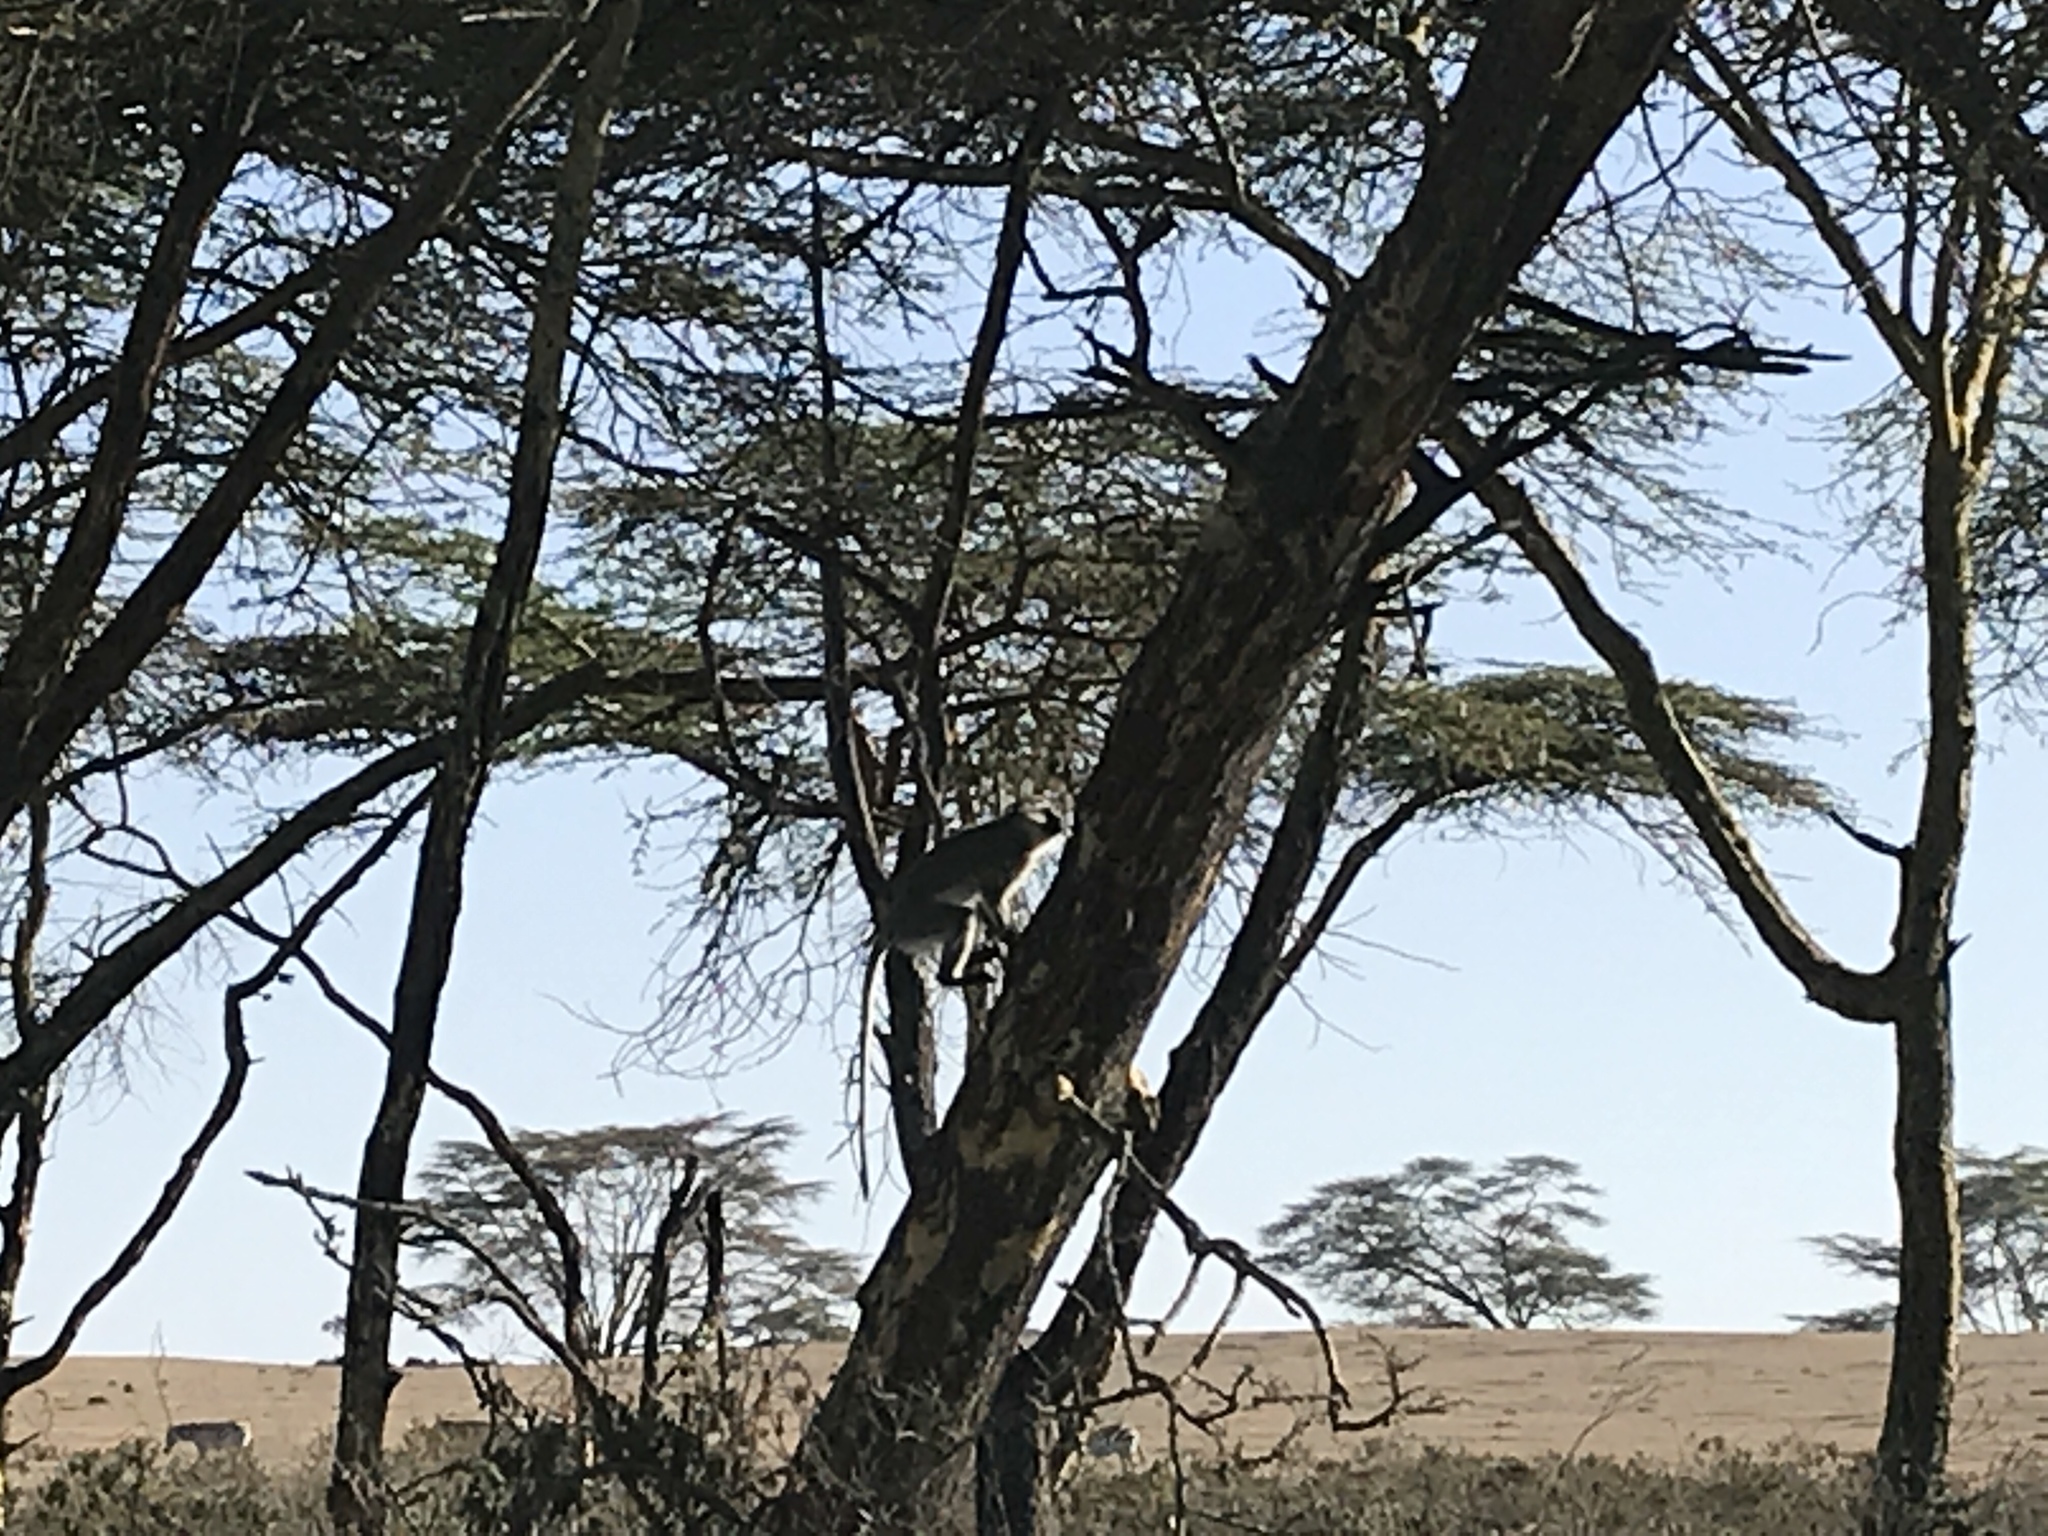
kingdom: Animalia
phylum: Chordata
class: Mammalia
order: Primates
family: Cercopithecidae
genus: Chlorocebus
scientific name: Chlorocebus pygerythrus
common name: Vervet monkey
